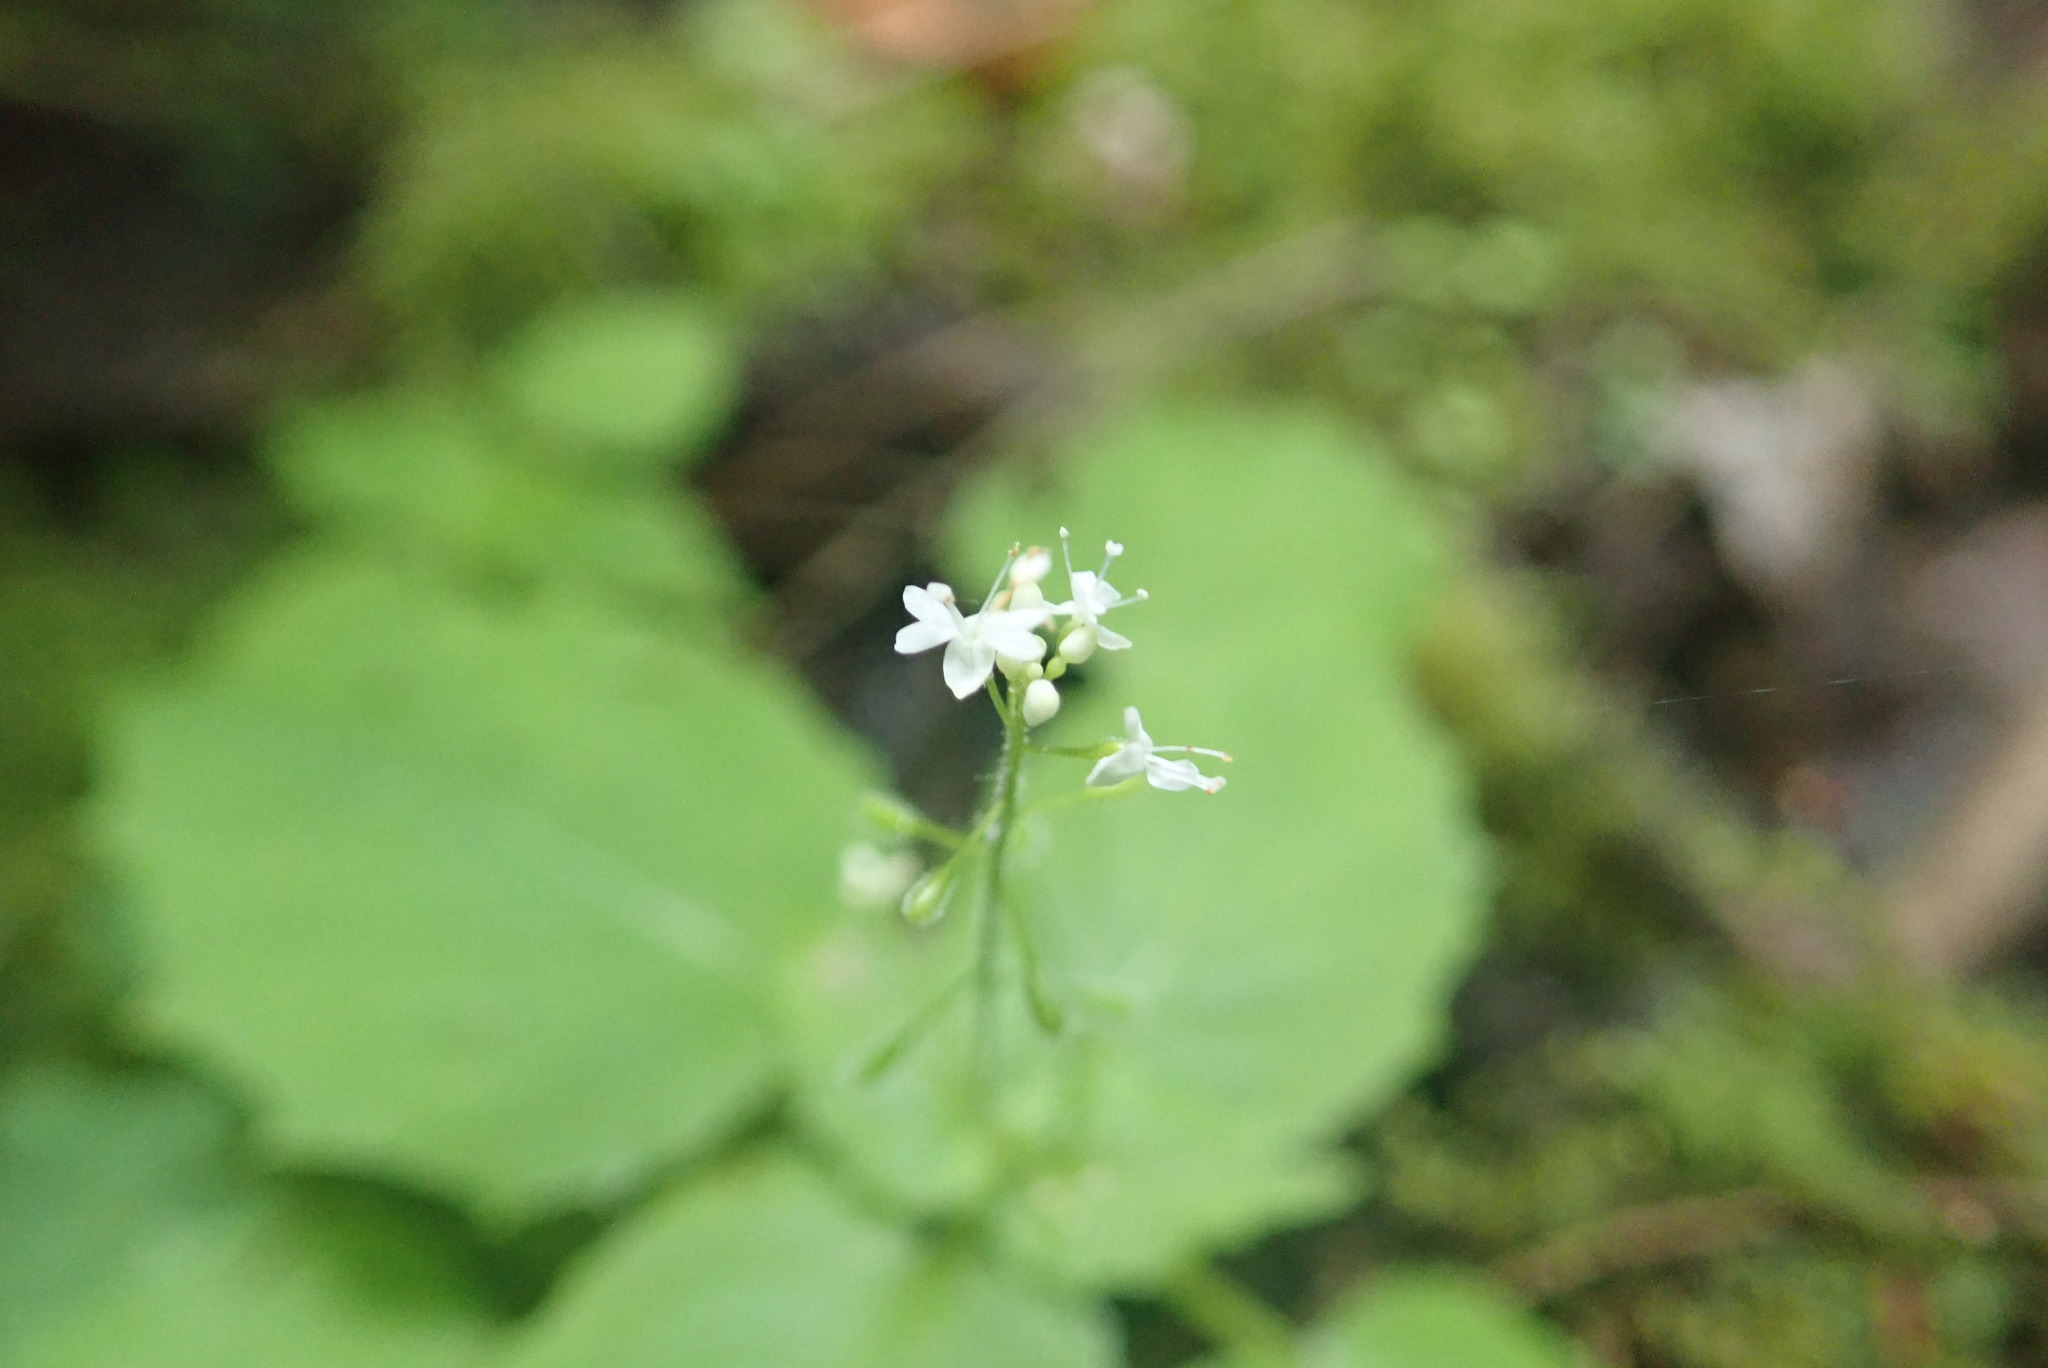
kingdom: Plantae
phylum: Tracheophyta
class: Magnoliopsida
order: Myrtales
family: Onagraceae
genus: Circaea
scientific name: Circaea alpina
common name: Alpine enchanter's-nightshade
